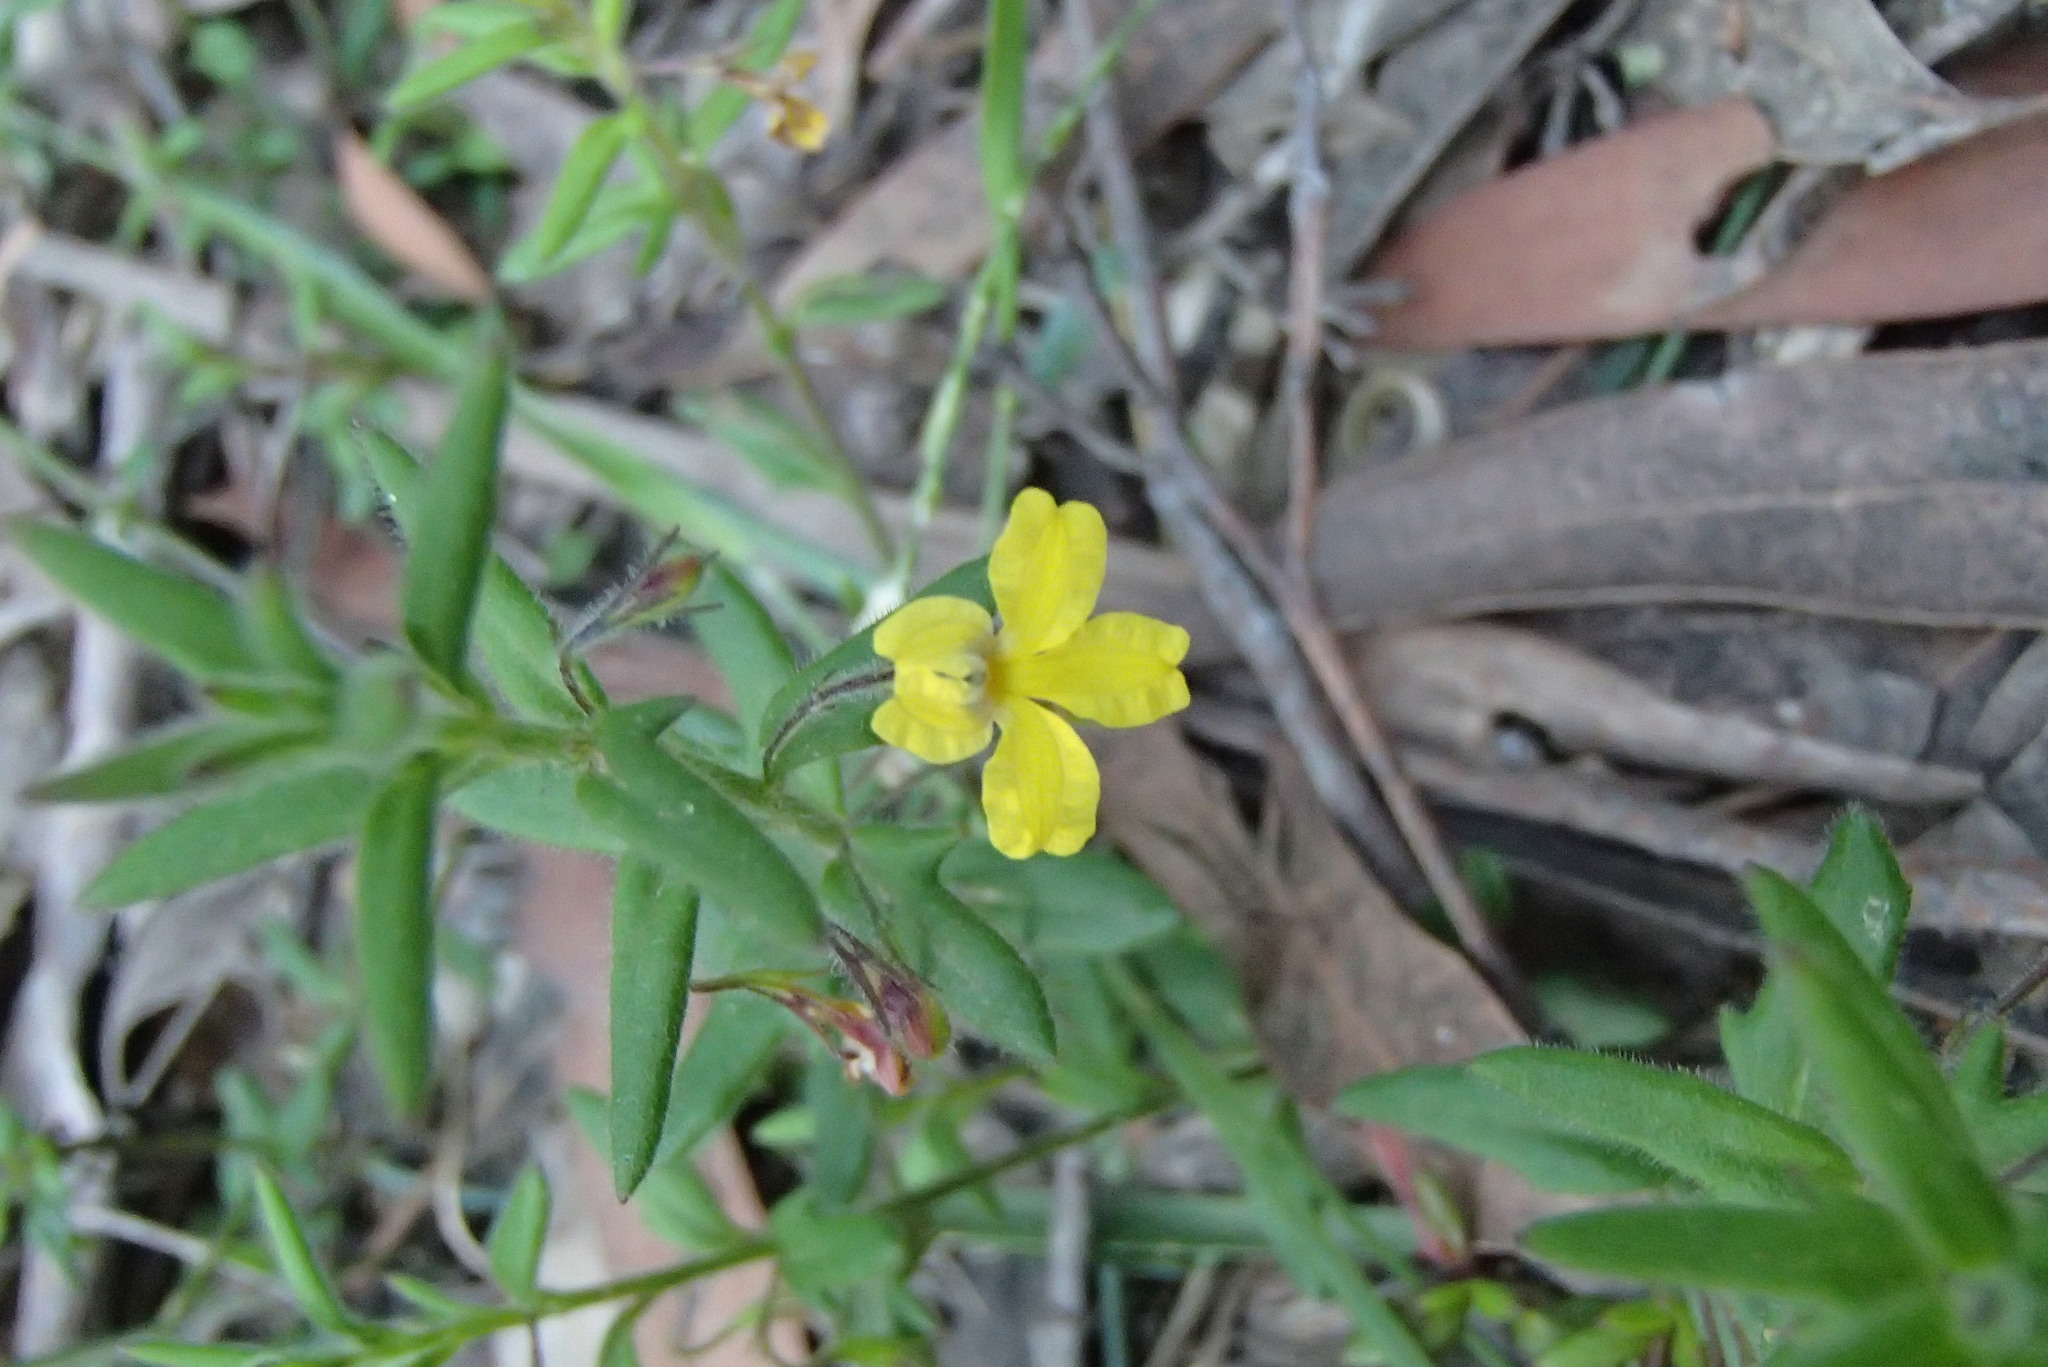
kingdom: Plantae
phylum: Tracheophyta
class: Magnoliopsida
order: Asterales
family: Goodeniaceae
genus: Goodenia
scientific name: Goodenia heterophylla
